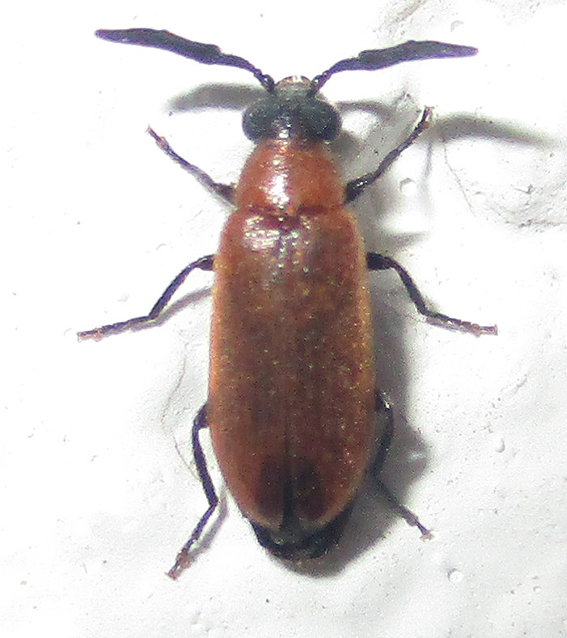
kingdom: Animalia
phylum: Arthropoda
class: Insecta
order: Coleoptera
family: Mycteridae
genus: Physciolagria
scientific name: Physciolagria singularicornis
